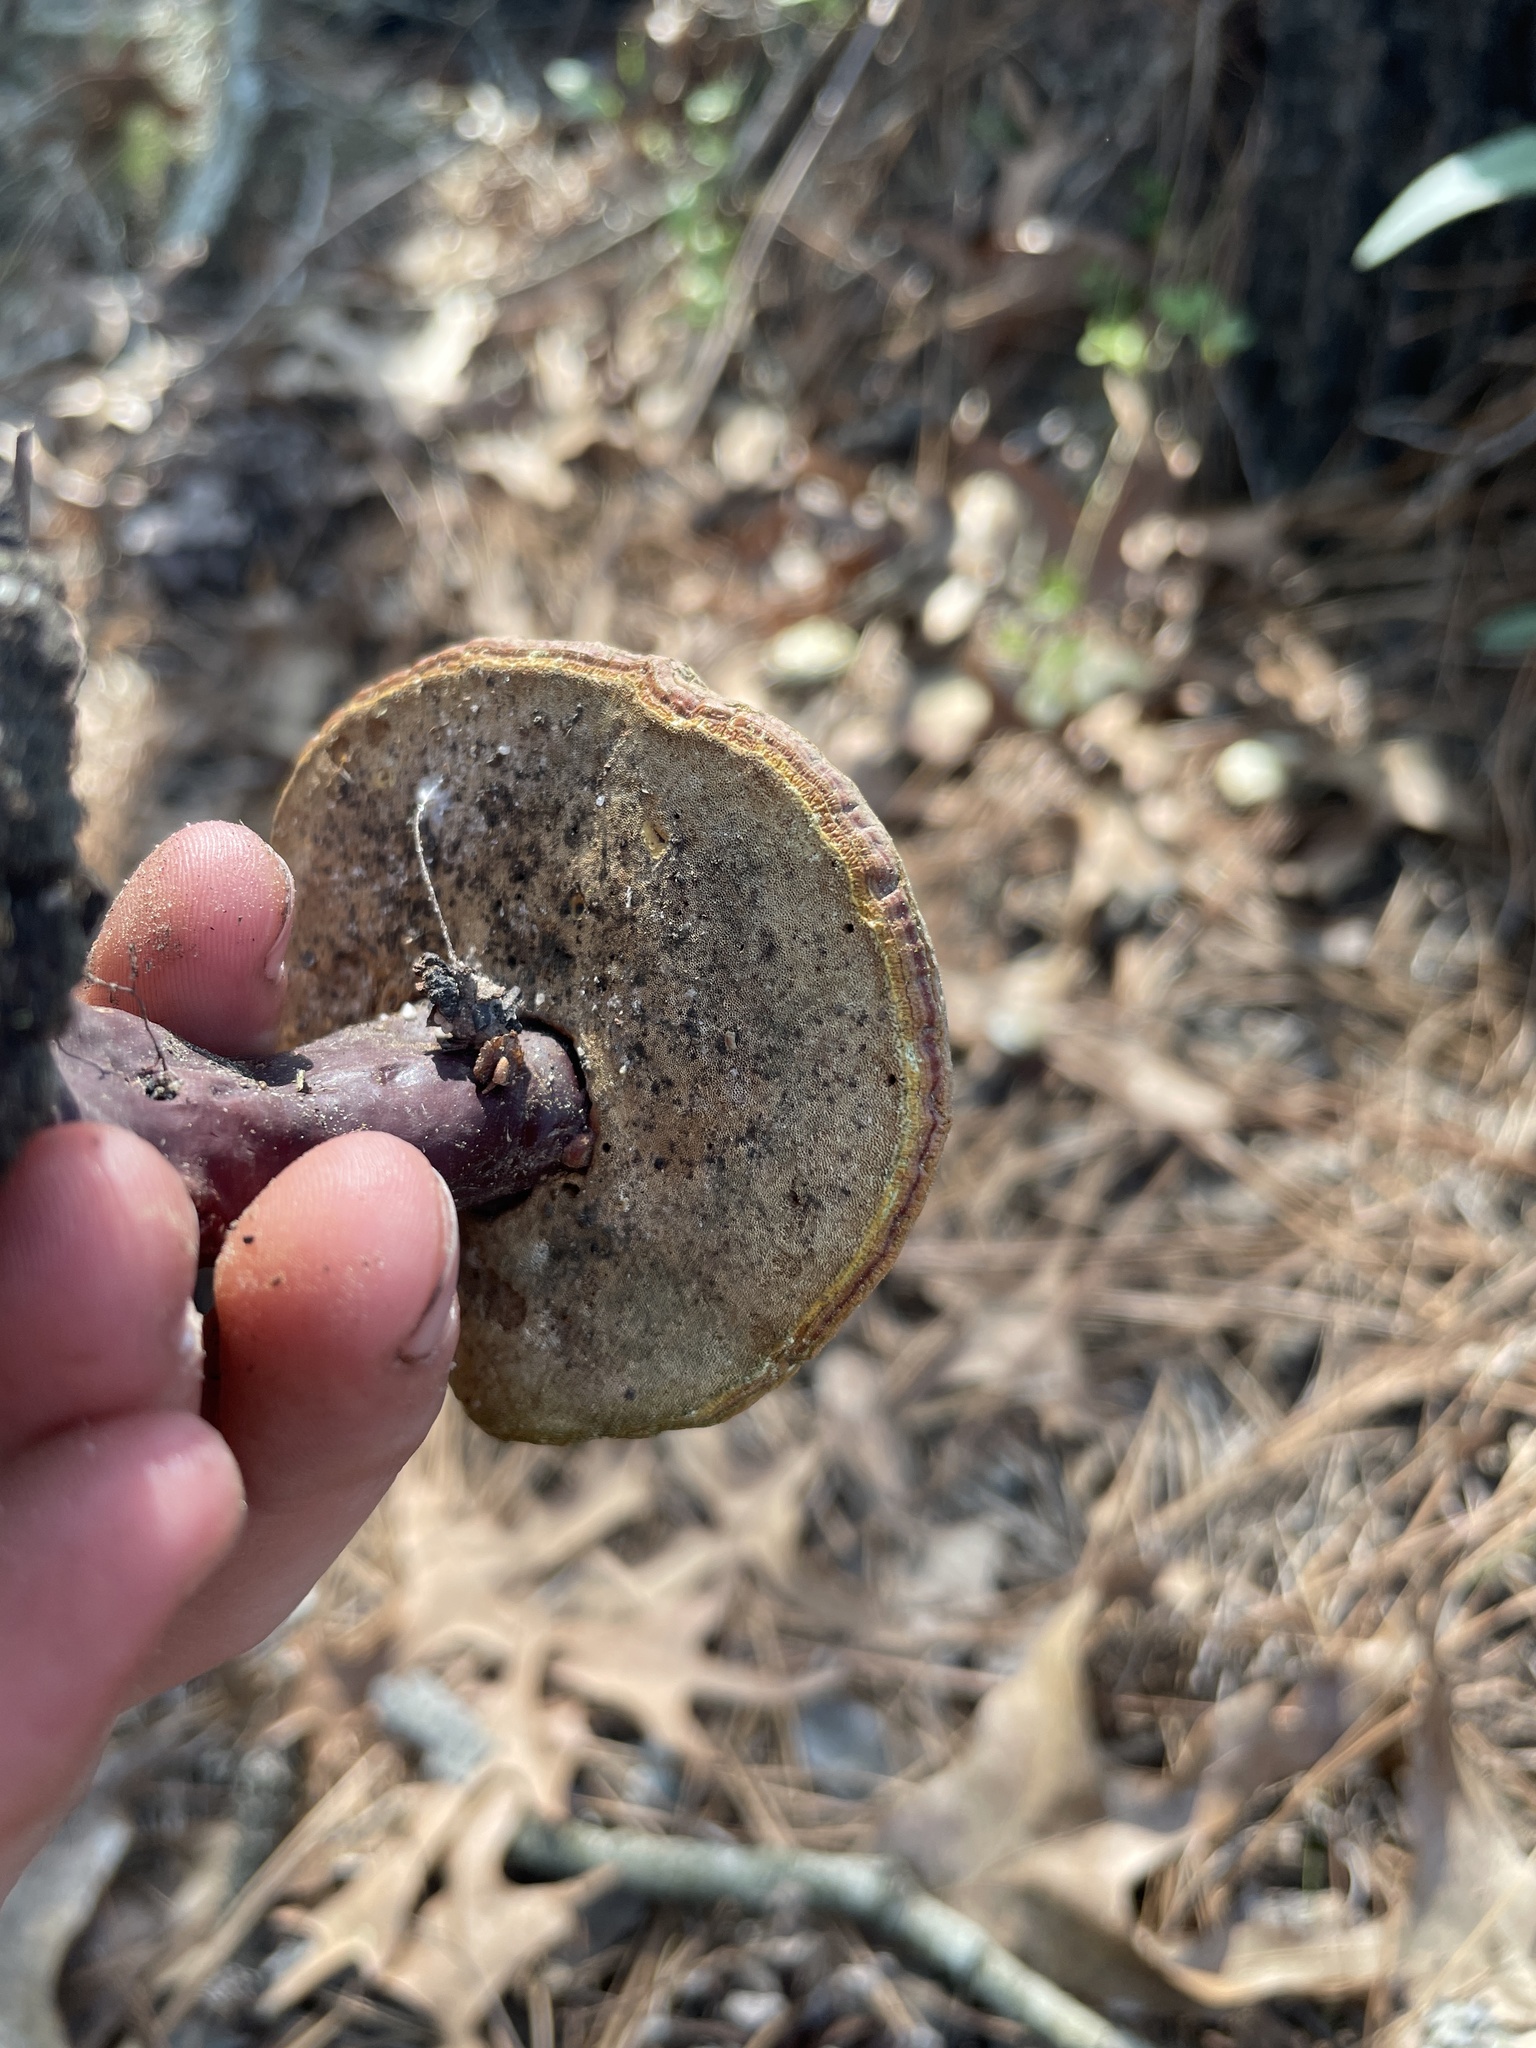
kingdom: Fungi
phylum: Basidiomycota
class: Agaricomycetes
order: Polyporales
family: Polyporaceae
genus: Ganoderma
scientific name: Ganoderma curtisii
